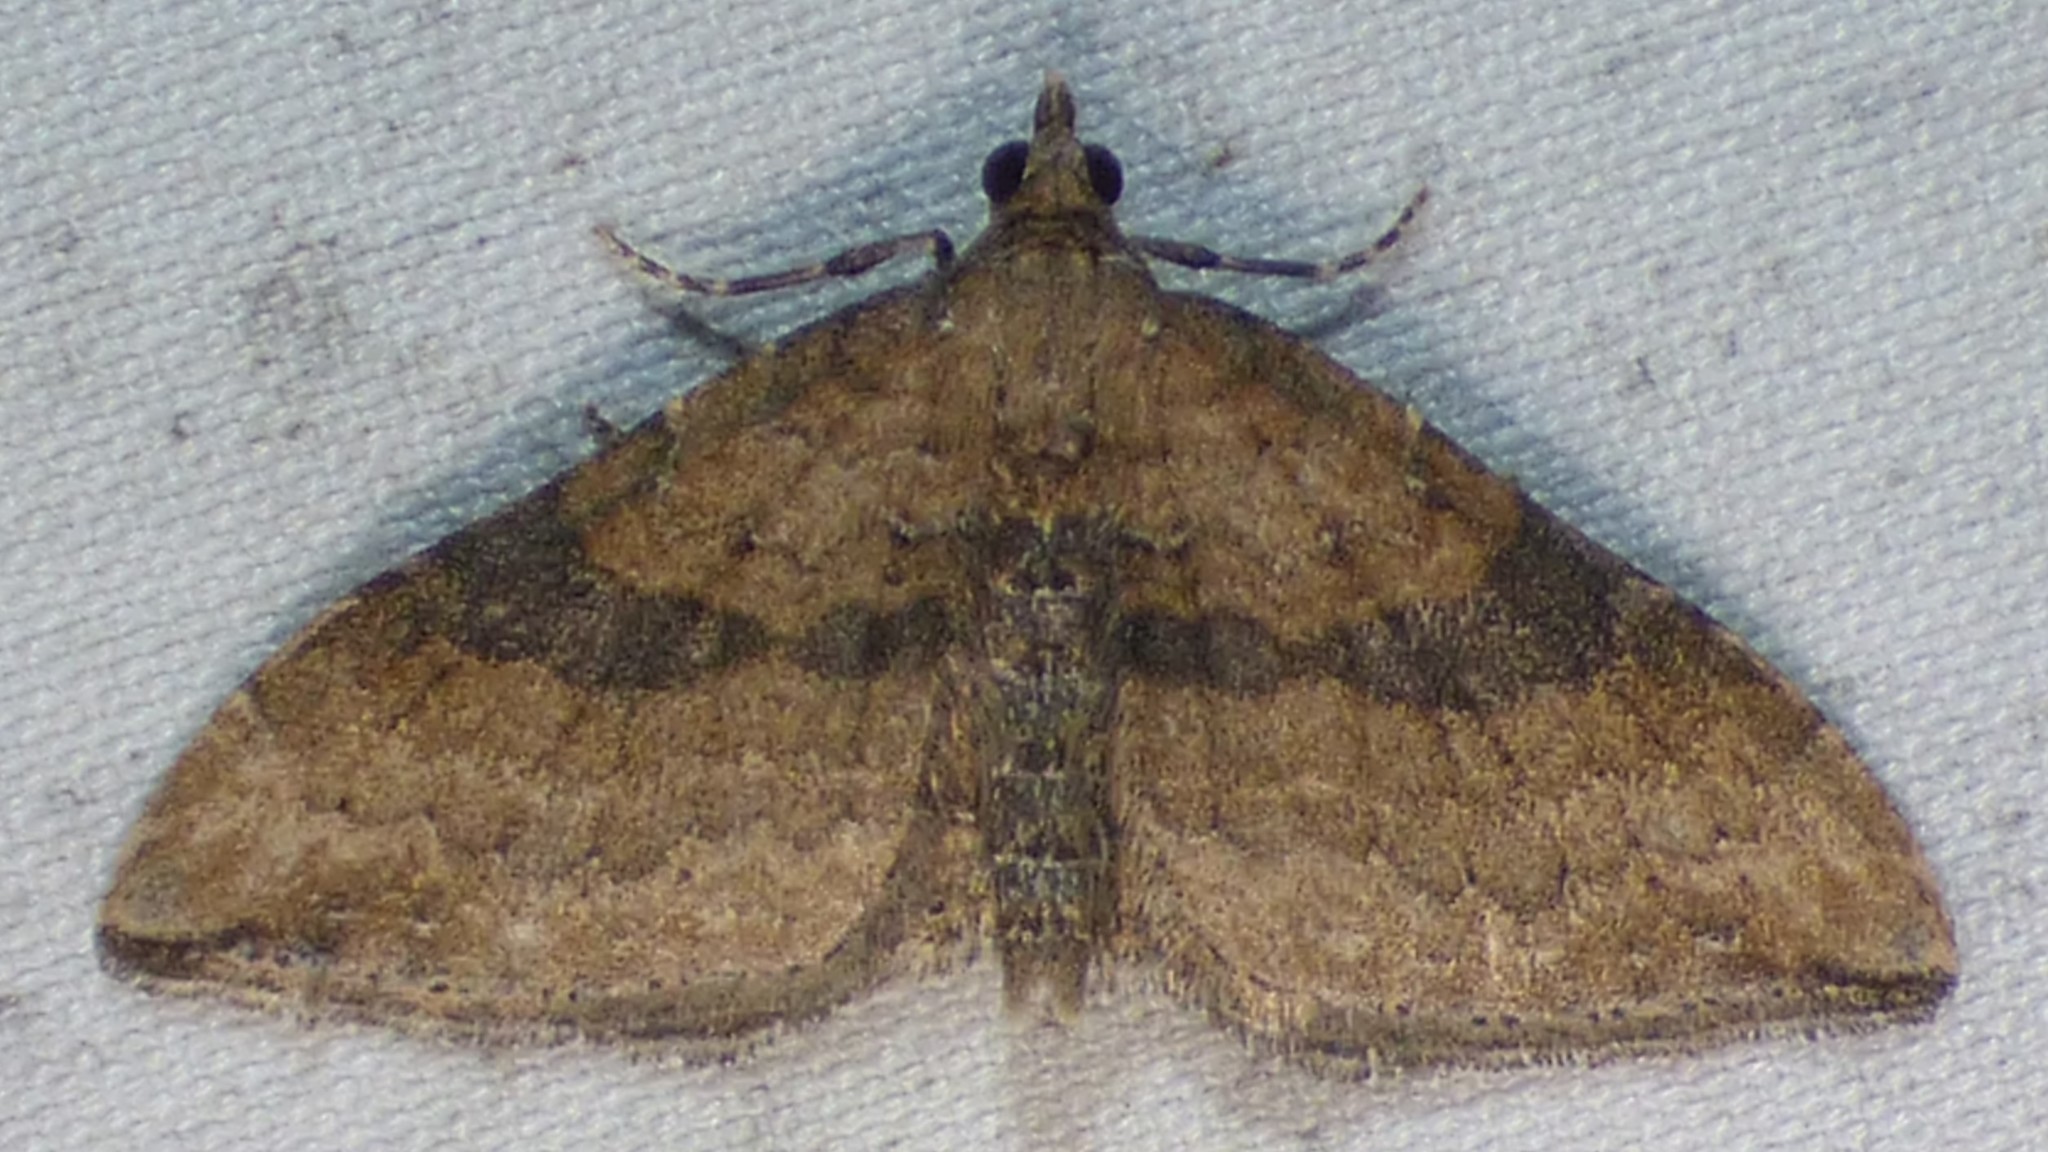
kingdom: Animalia
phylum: Arthropoda
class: Insecta
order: Lepidoptera
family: Geometridae
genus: Orthonama
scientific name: Orthonama obstipata
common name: The gem
